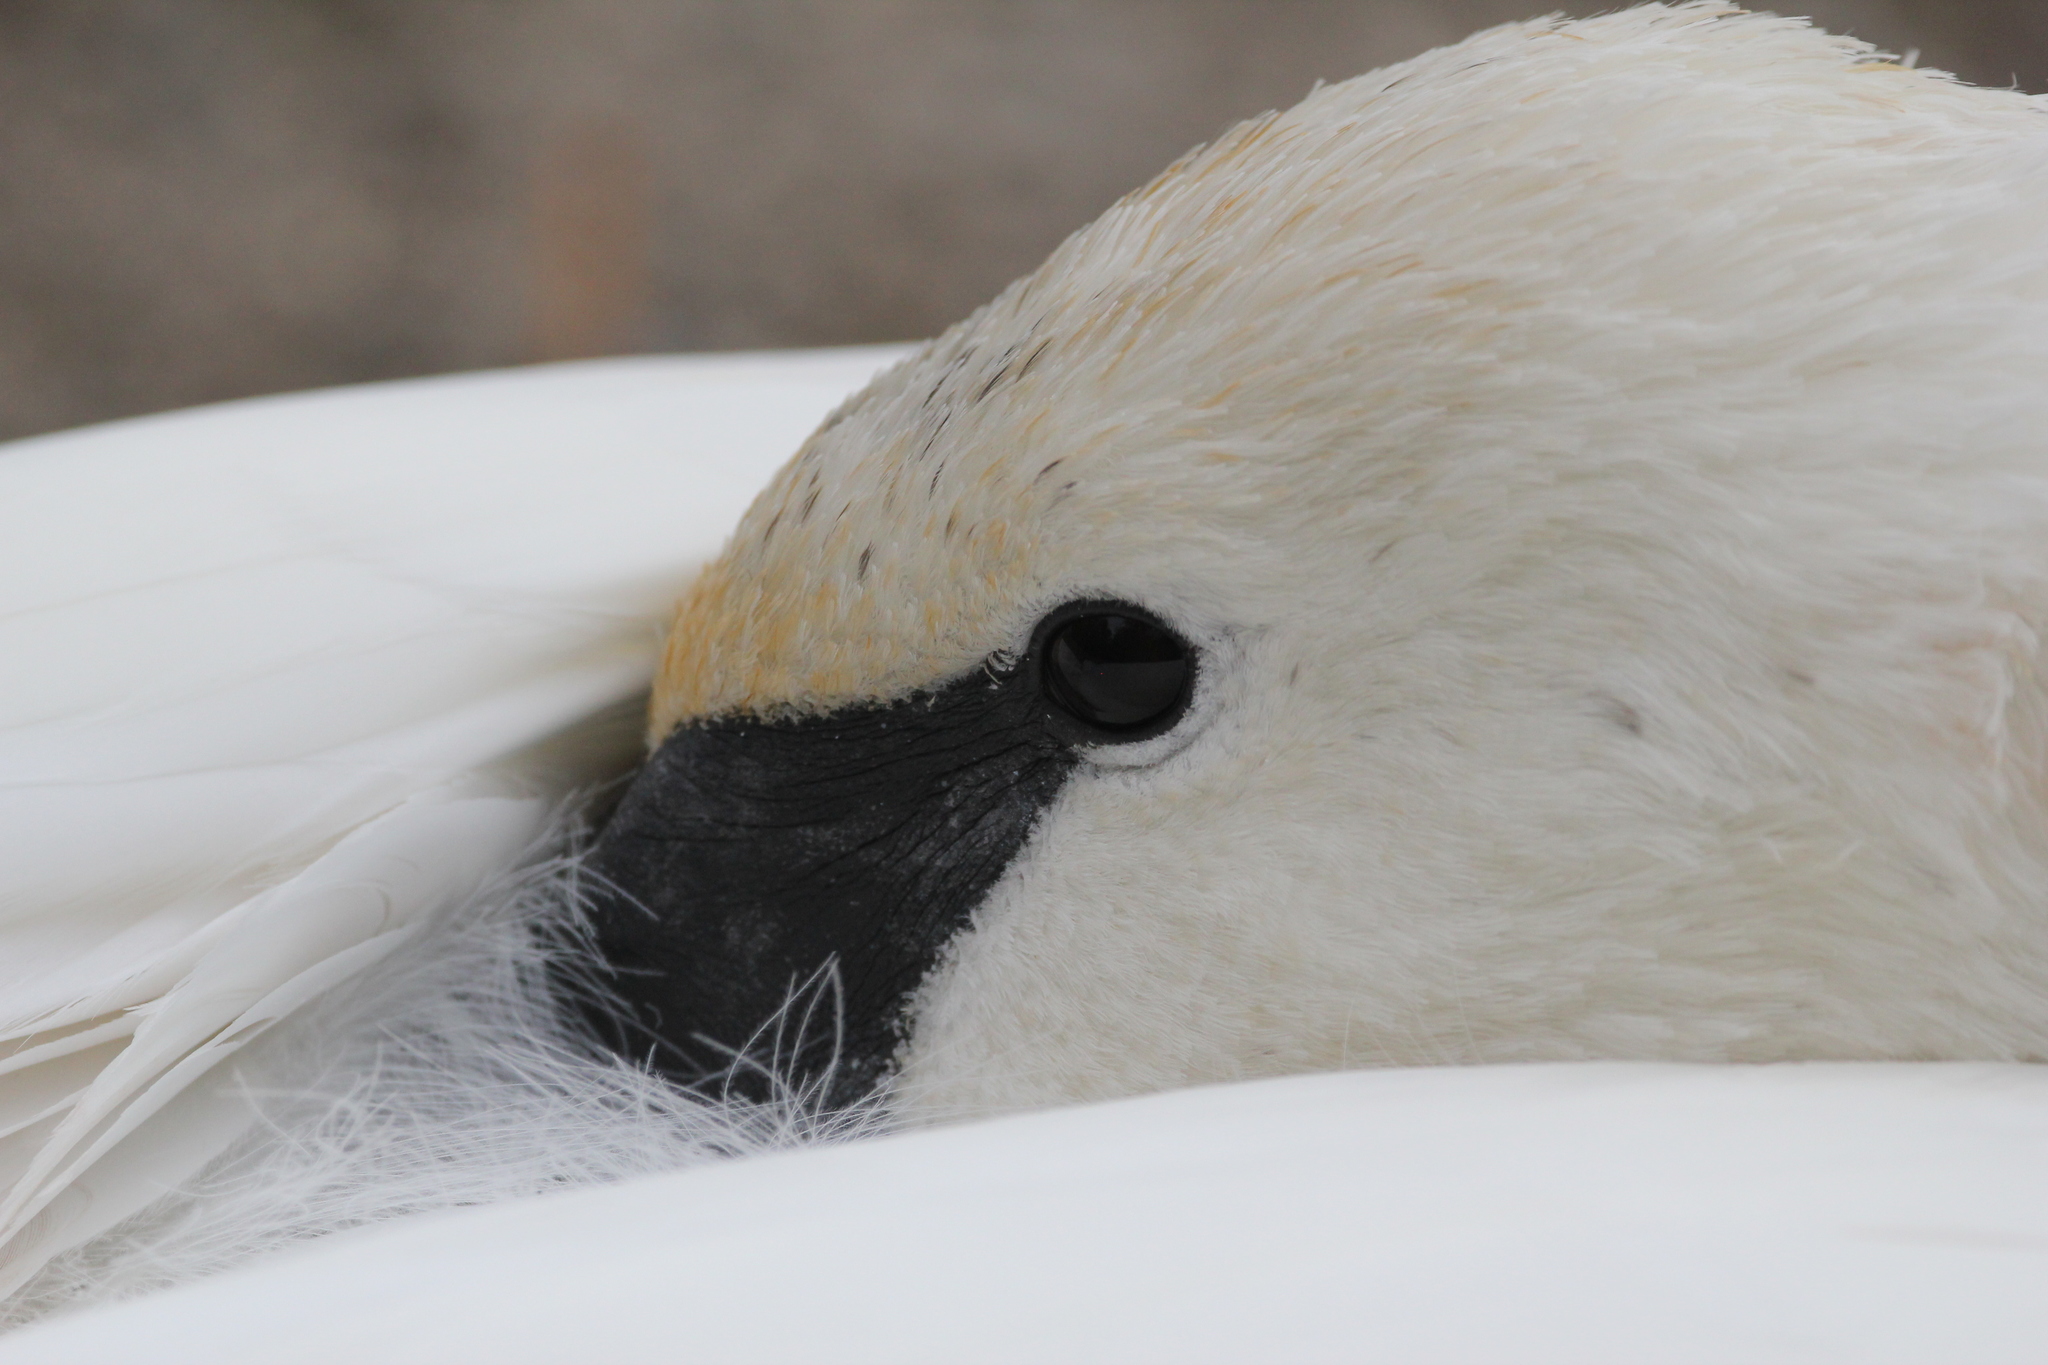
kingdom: Animalia
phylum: Chordata
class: Aves
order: Anseriformes
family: Anatidae
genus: Cygnus
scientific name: Cygnus buccinator
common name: Trumpeter swan
